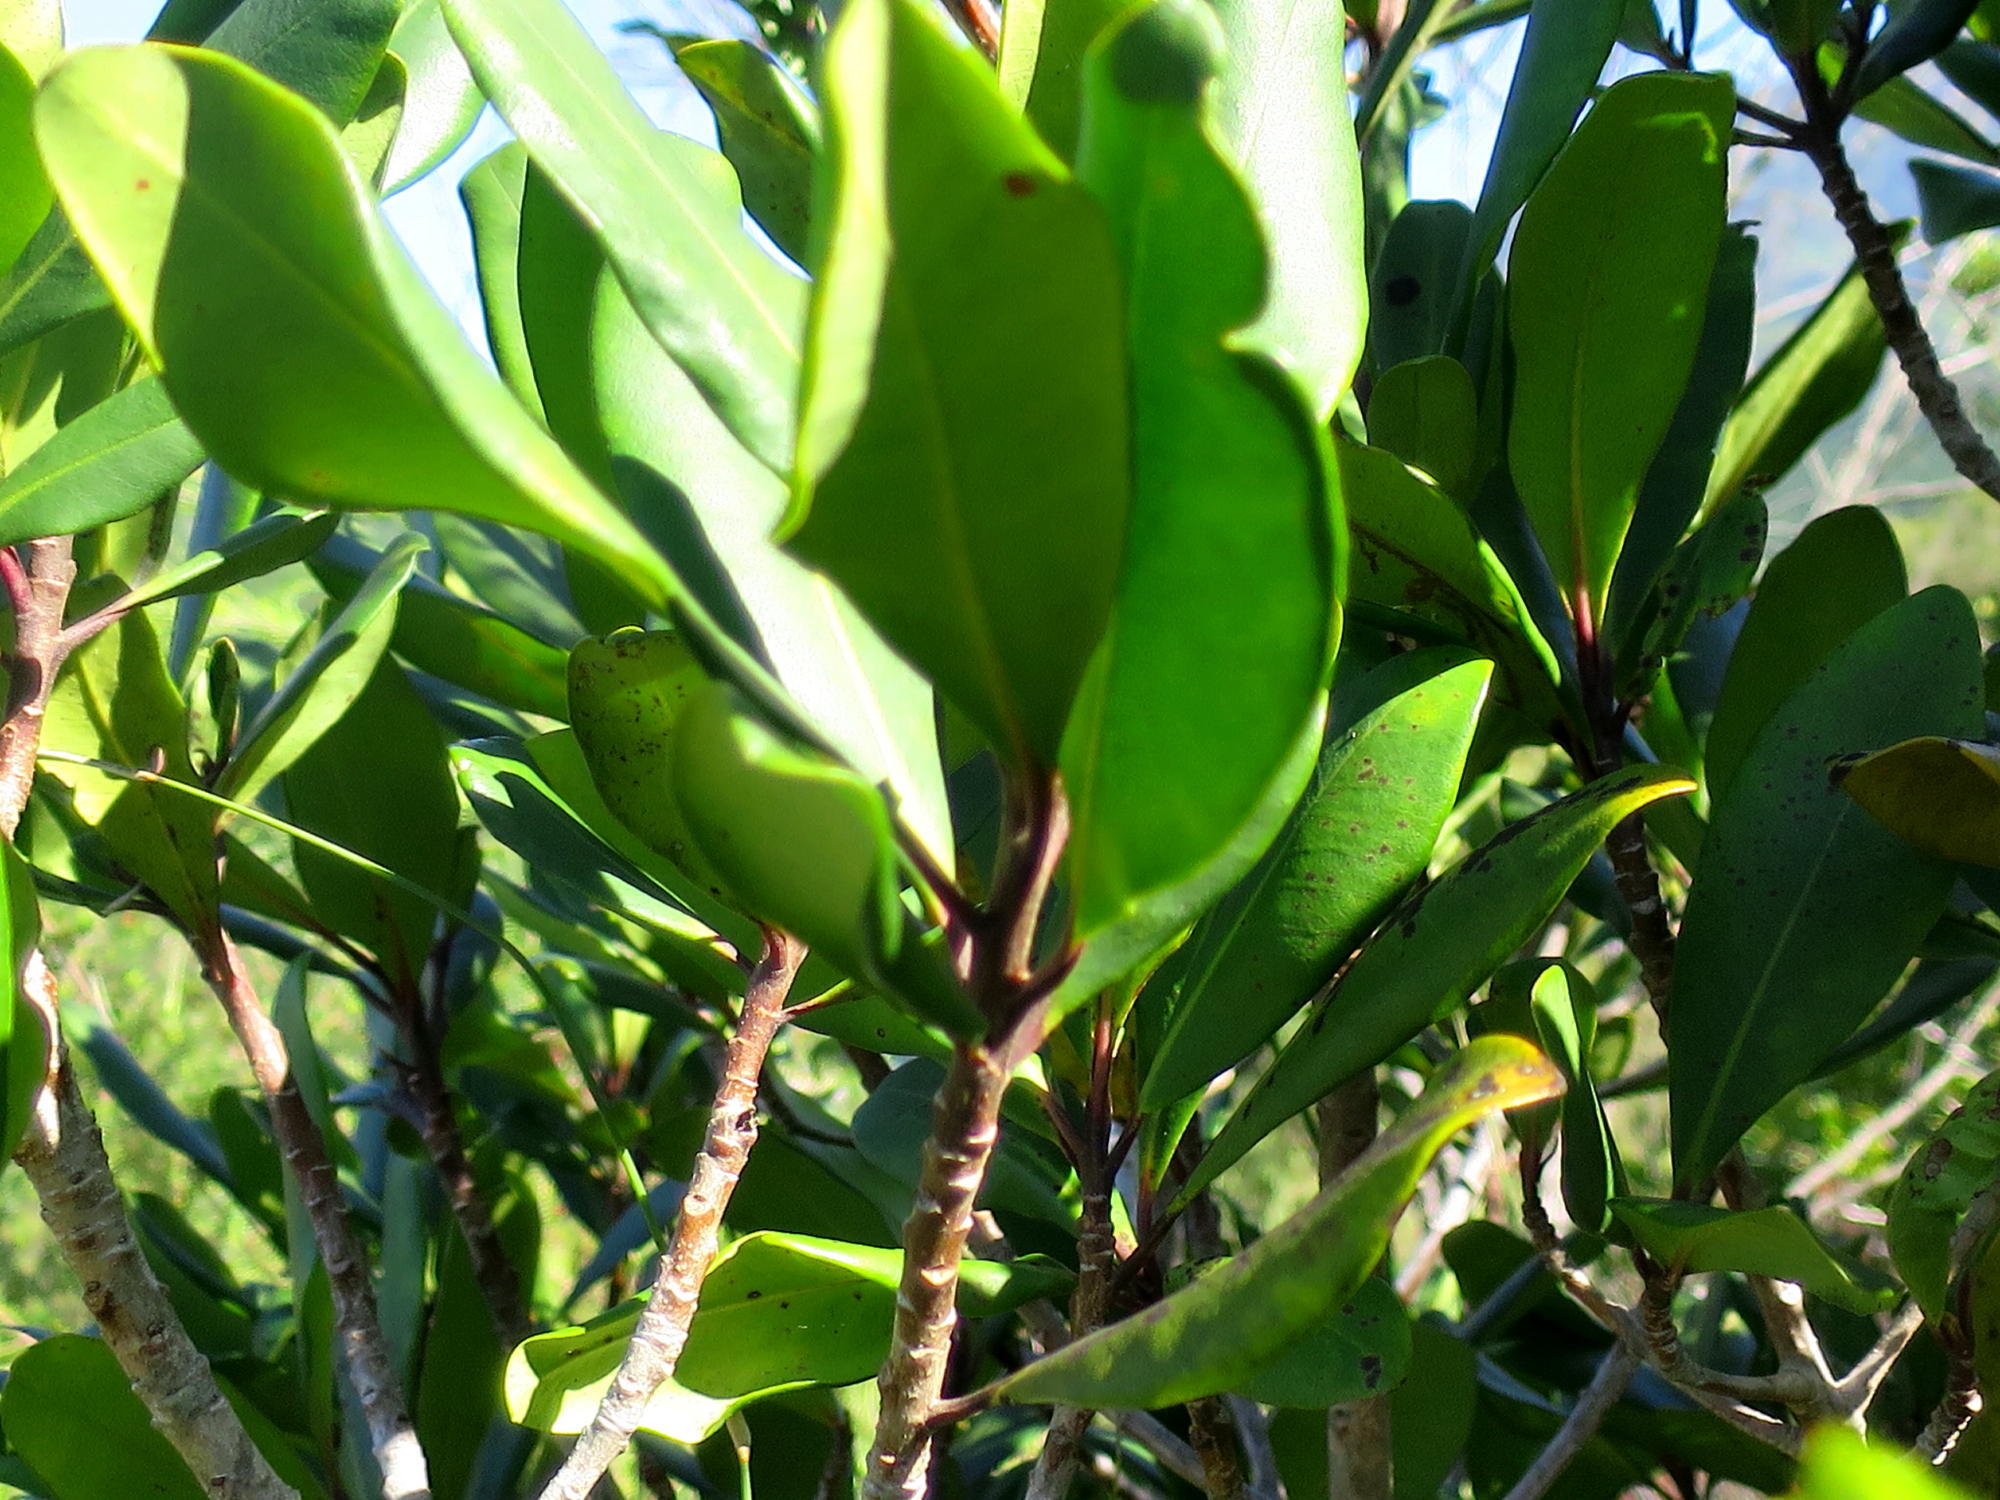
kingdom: Plantae
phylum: Tracheophyta
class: Magnoliopsida
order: Ericales
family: Primulaceae
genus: Myrsine
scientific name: Myrsine melanophloeos
